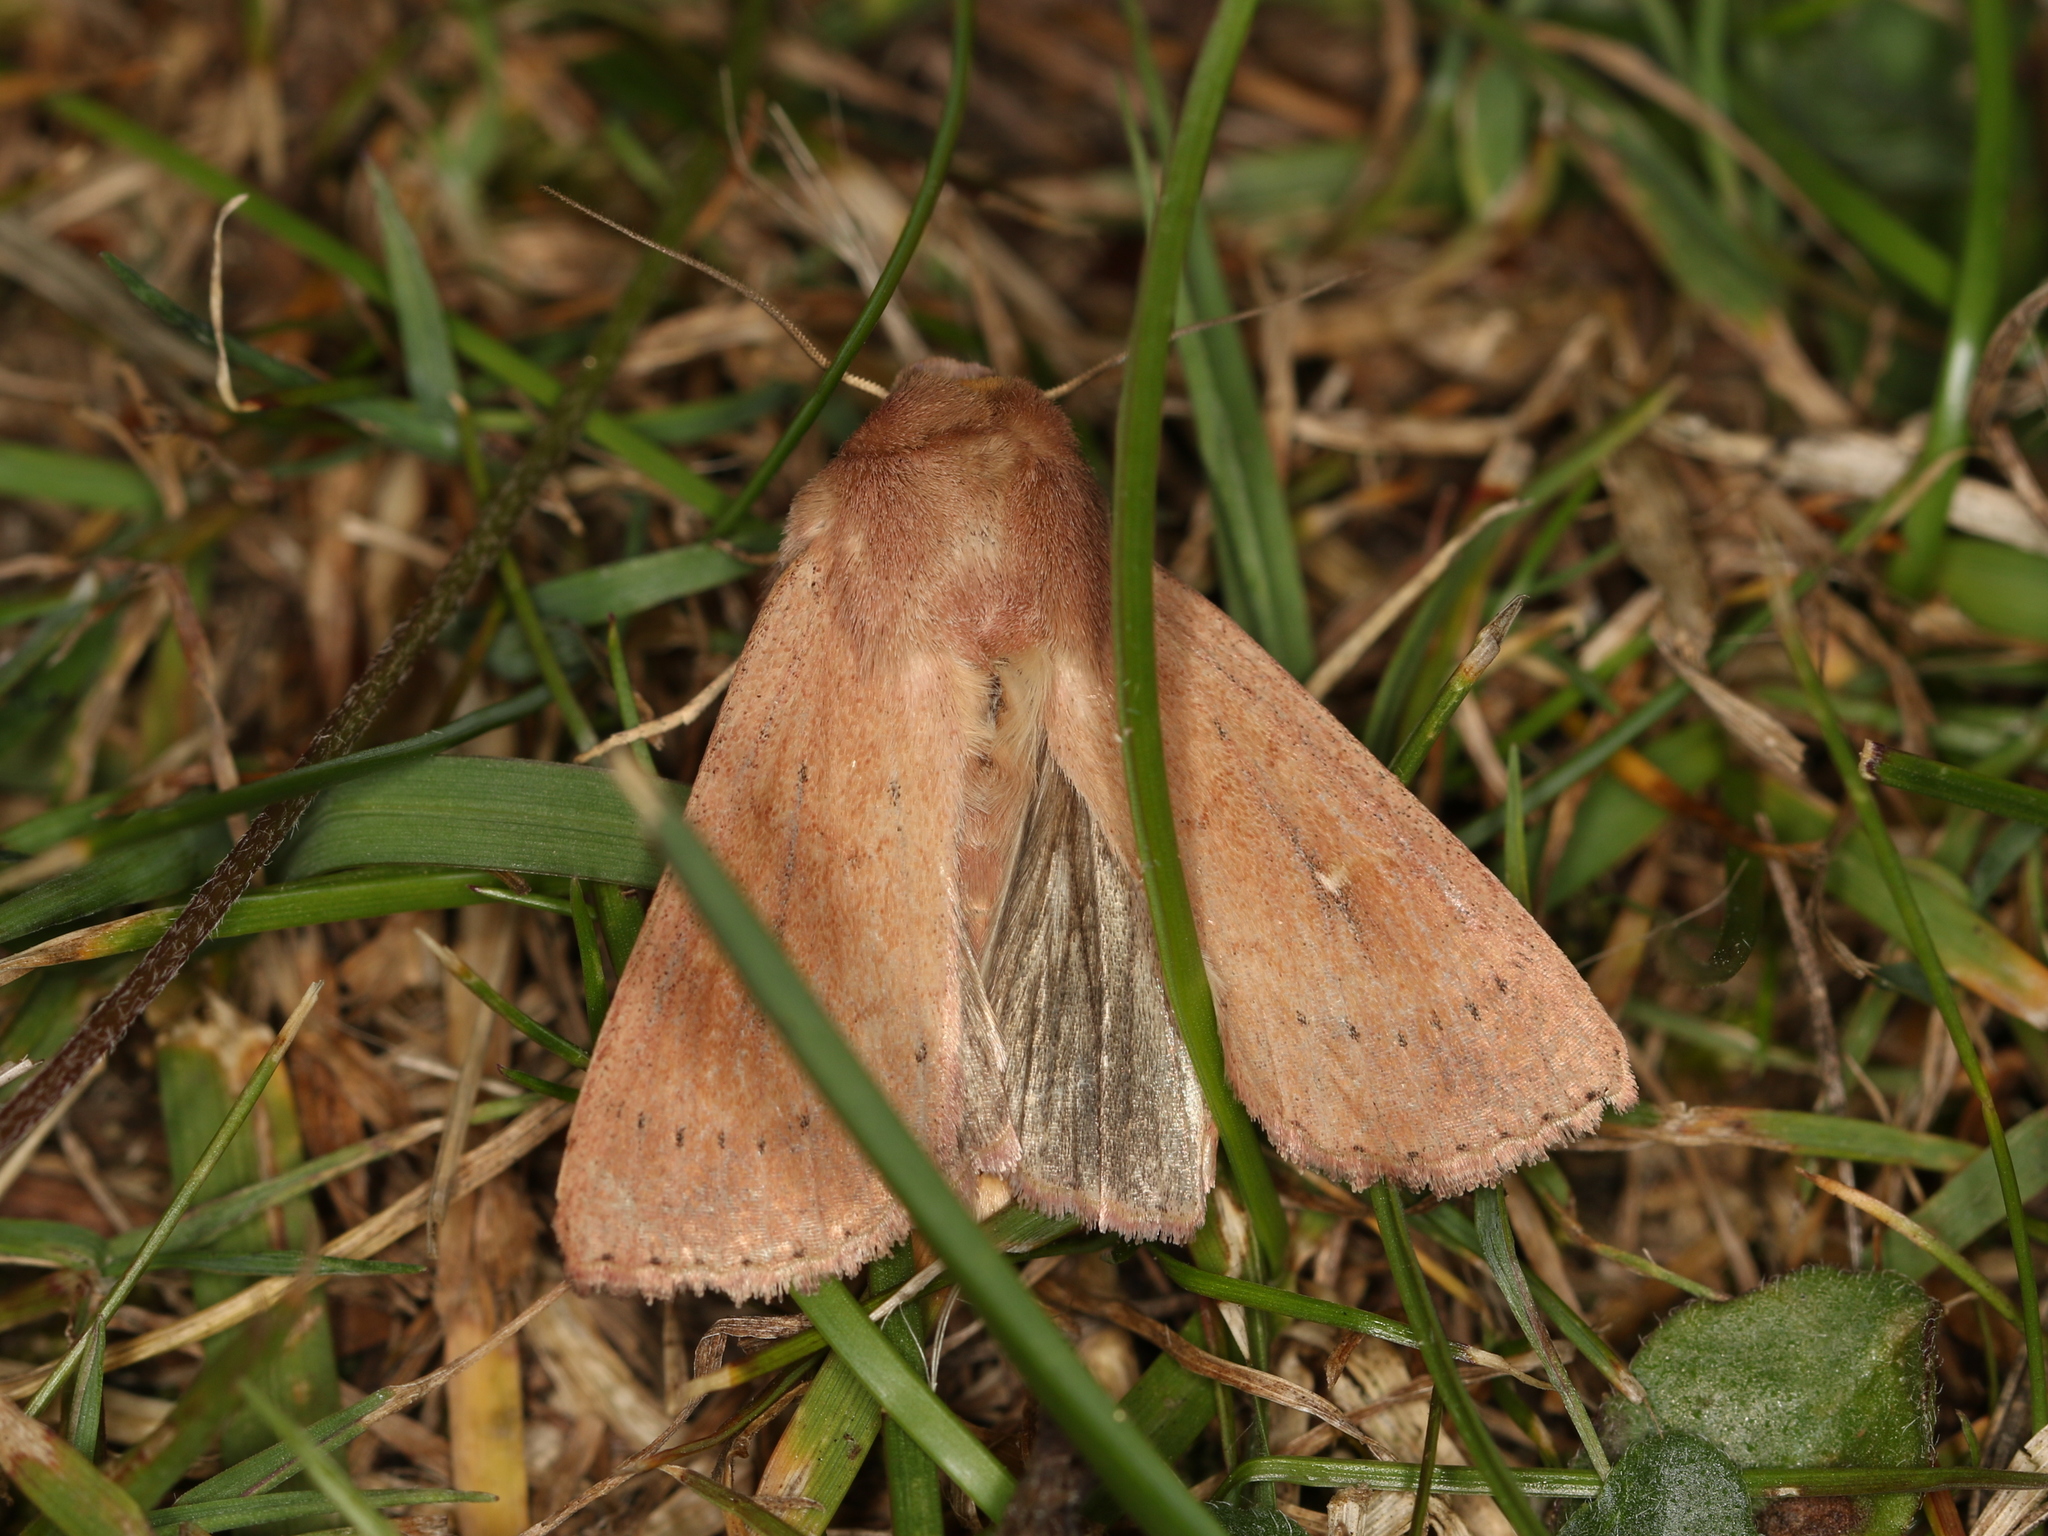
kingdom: Animalia
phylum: Arthropoda
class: Insecta
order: Lepidoptera
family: Noctuidae
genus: Mythimna
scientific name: Mythimna ferrago
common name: Clay
